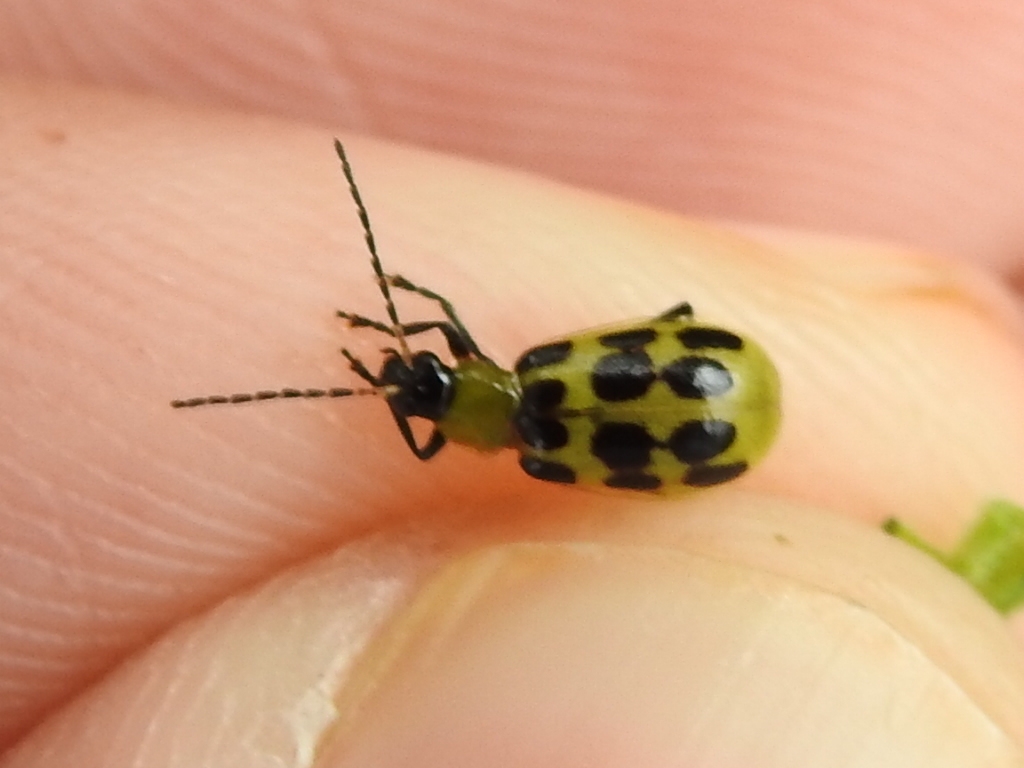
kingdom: Animalia
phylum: Arthropoda
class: Insecta
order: Coleoptera
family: Chrysomelidae
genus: Diabrotica
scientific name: Diabrotica undecimpunctata
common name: Spotted cucumber beetle
